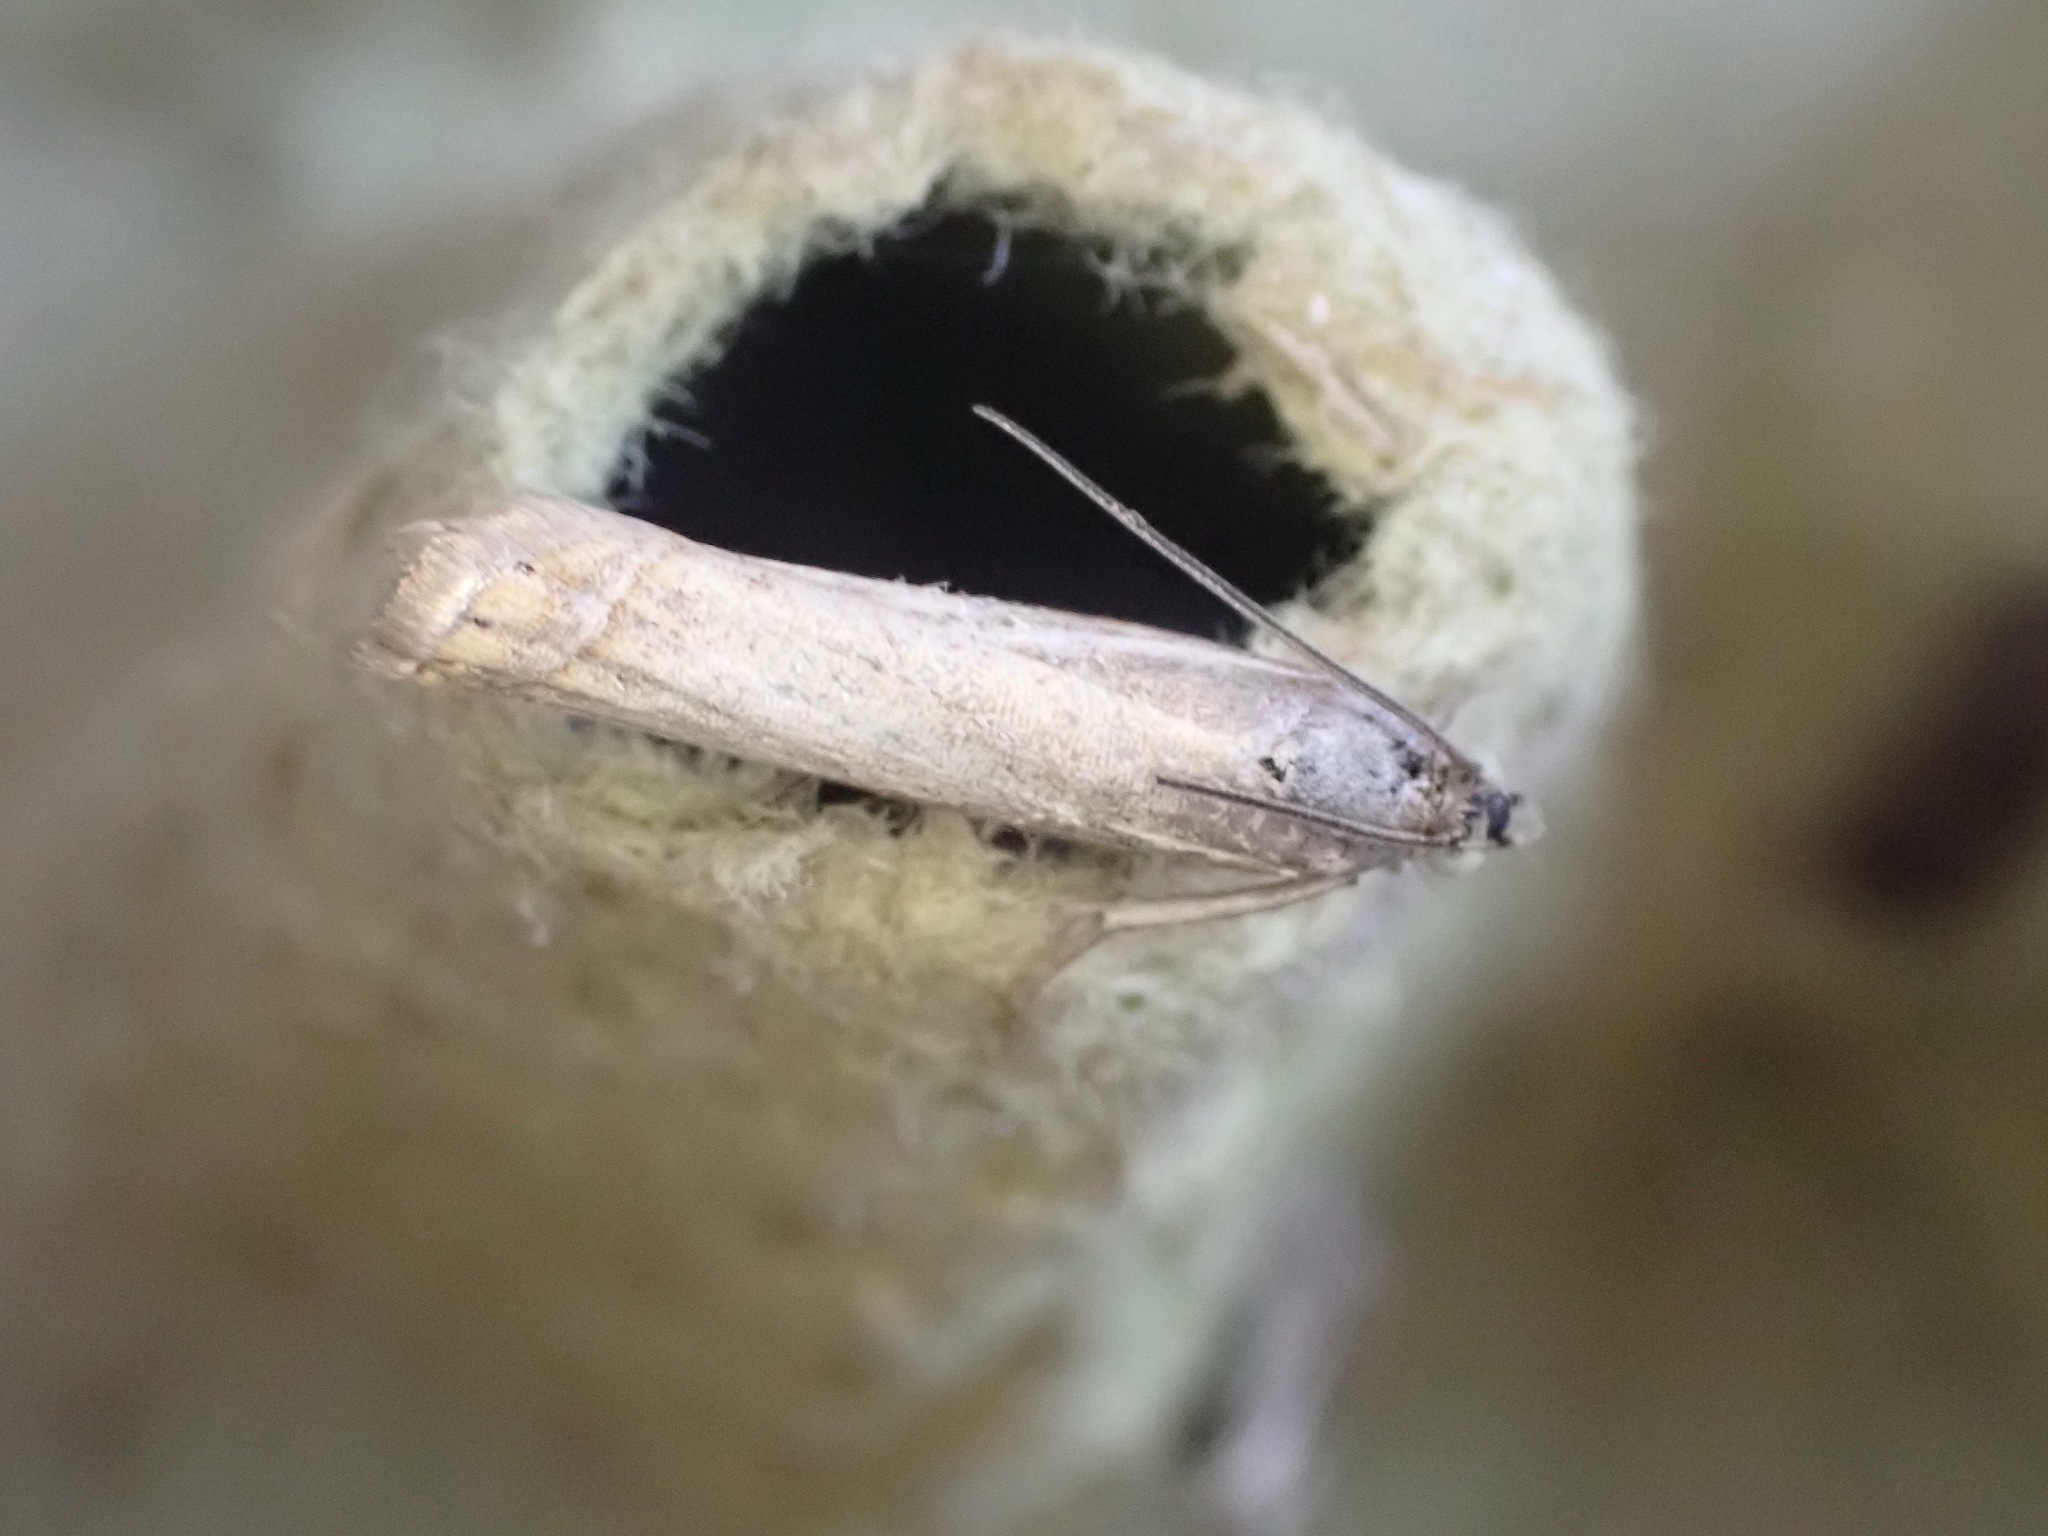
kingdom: Animalia
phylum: Arthropoda
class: Insecta
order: Lepidoptera
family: Crambidae
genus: Chrysoteuchia
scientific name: Chrysoteuchia culmella
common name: Garden grass-veneer
